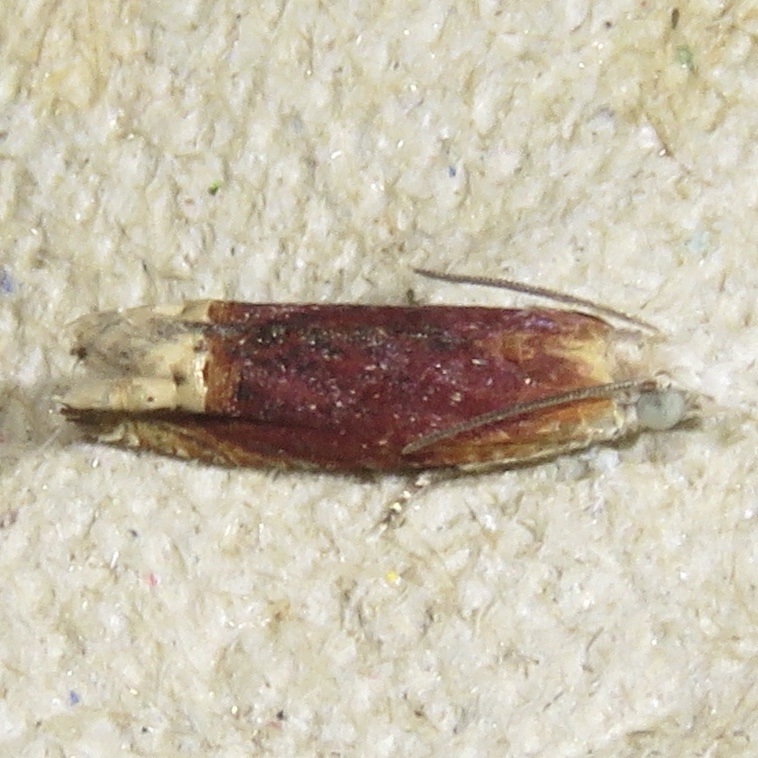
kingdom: Animalia
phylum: Arthropoda
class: Insecta
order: Lepidoptera
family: Tortricidae
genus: Eucosma
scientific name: Eucosma raracana
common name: Reddish eucosma moth
